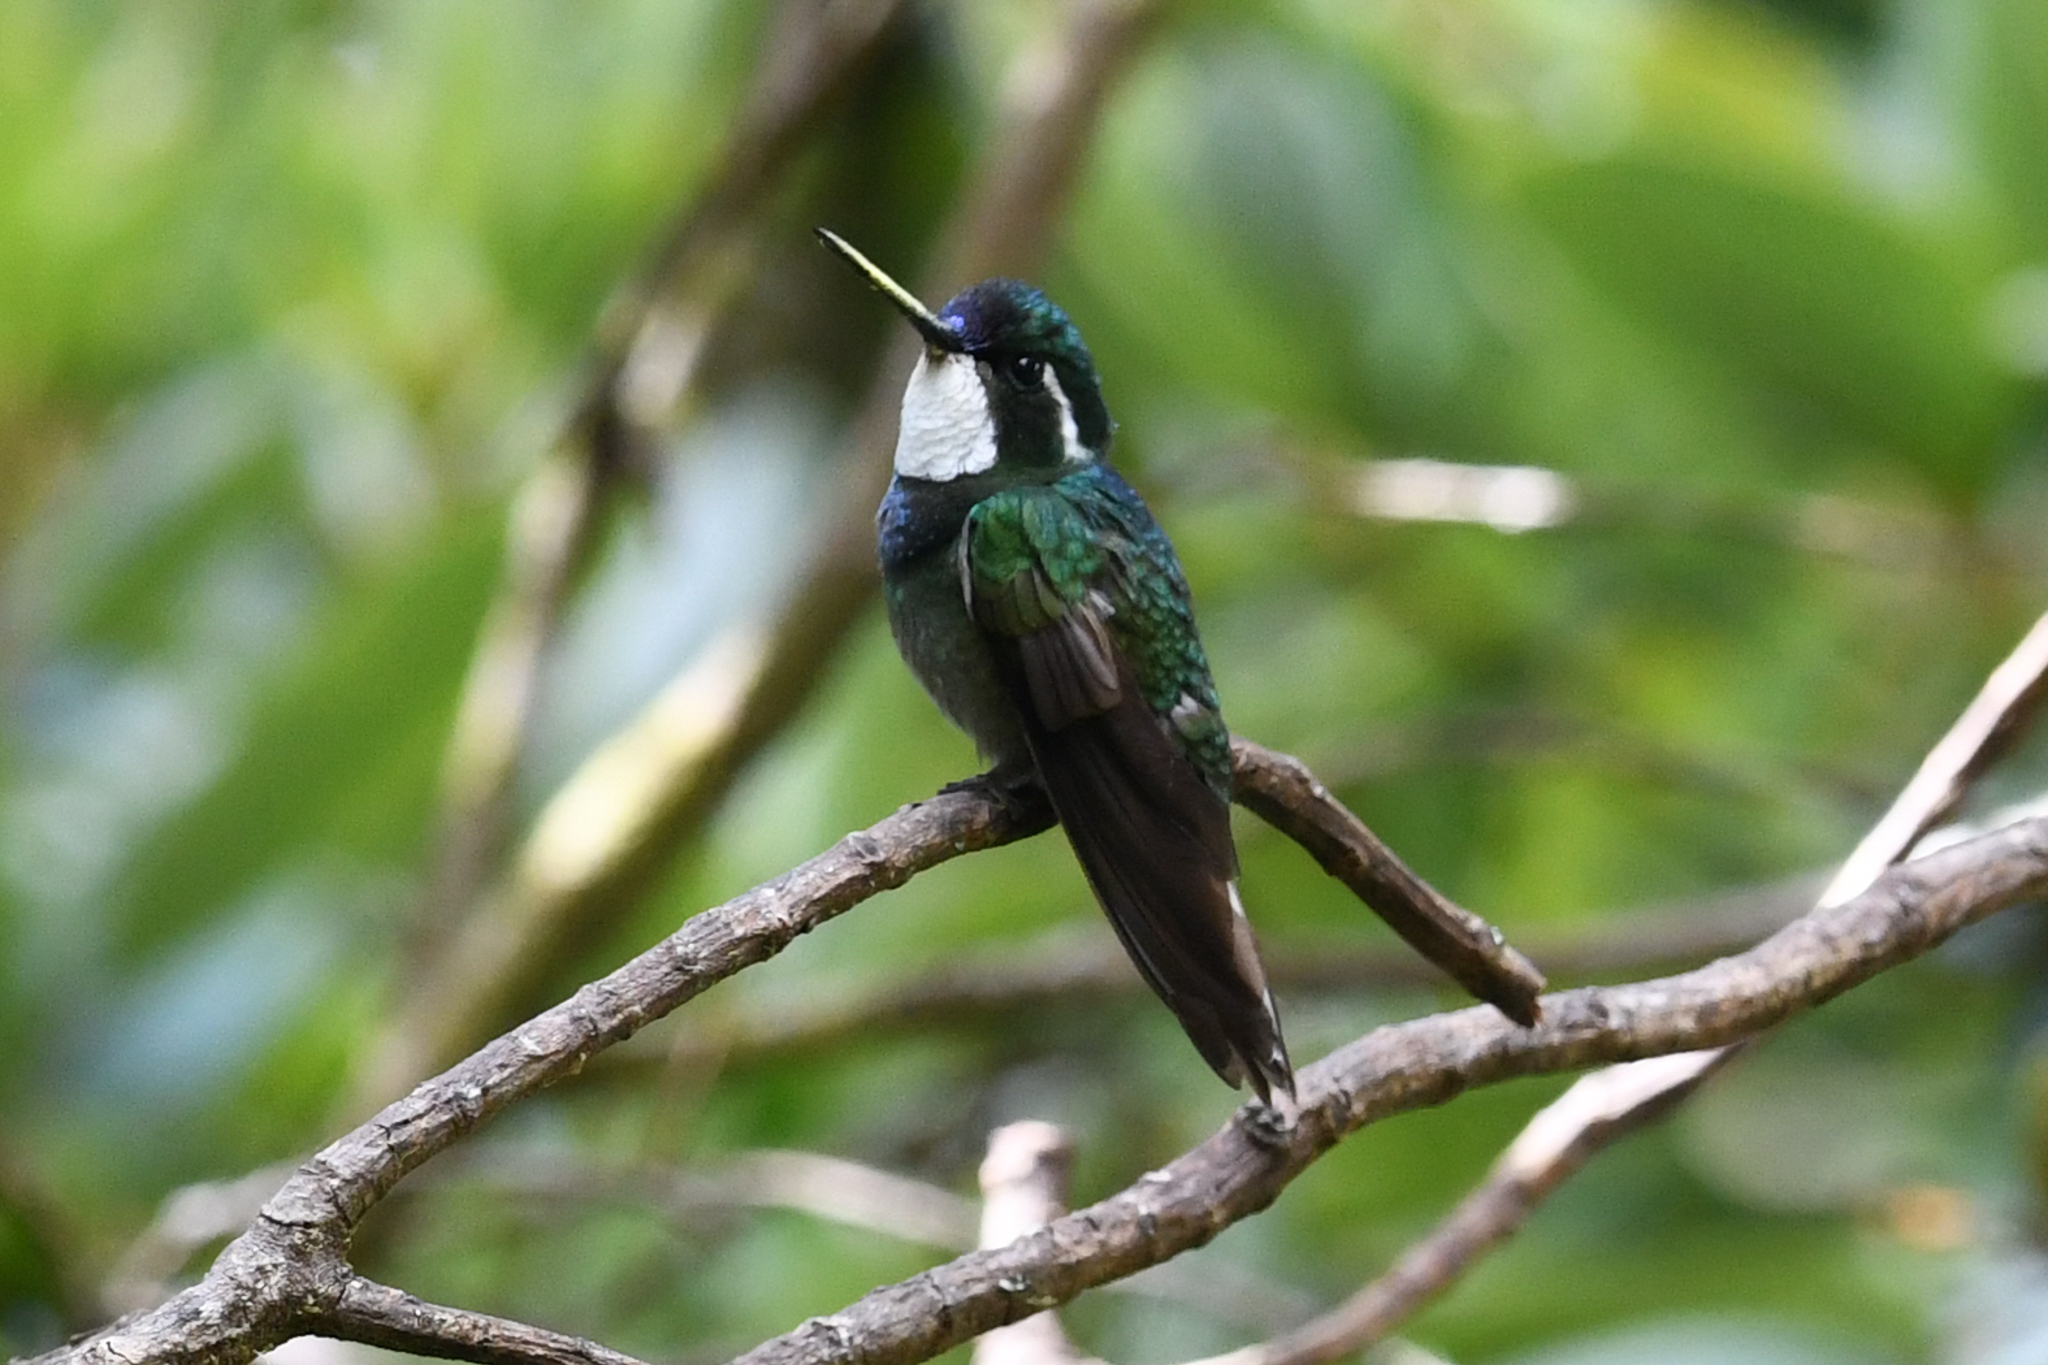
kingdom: Animalia
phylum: Chordata
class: Aves
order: Apodiformes
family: Trochilidae
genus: Lampornis
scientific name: Lampornis castaneoventris
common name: White-throated mountain-gem
